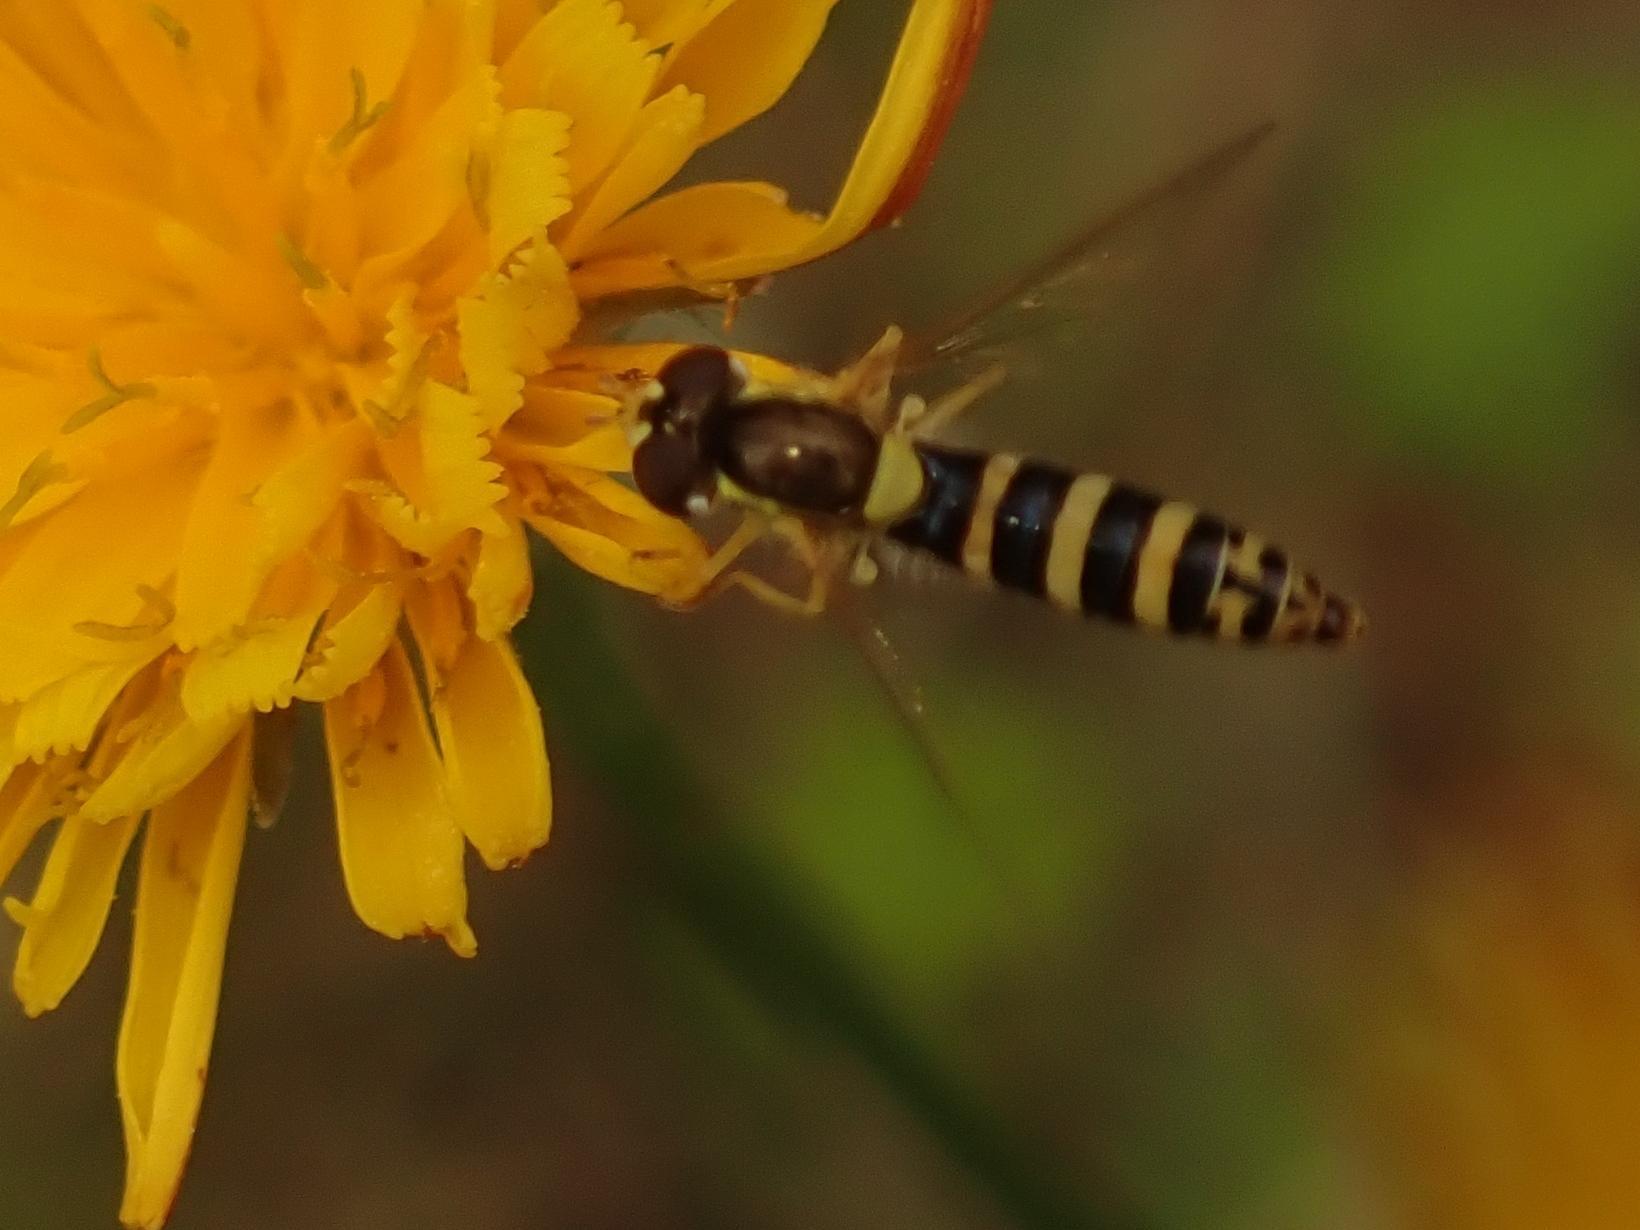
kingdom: Animalia
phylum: Arthropoda
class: Insecta
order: Diptera
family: Syrphidae
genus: Sphaerophoria
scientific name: Sphaerophoria
